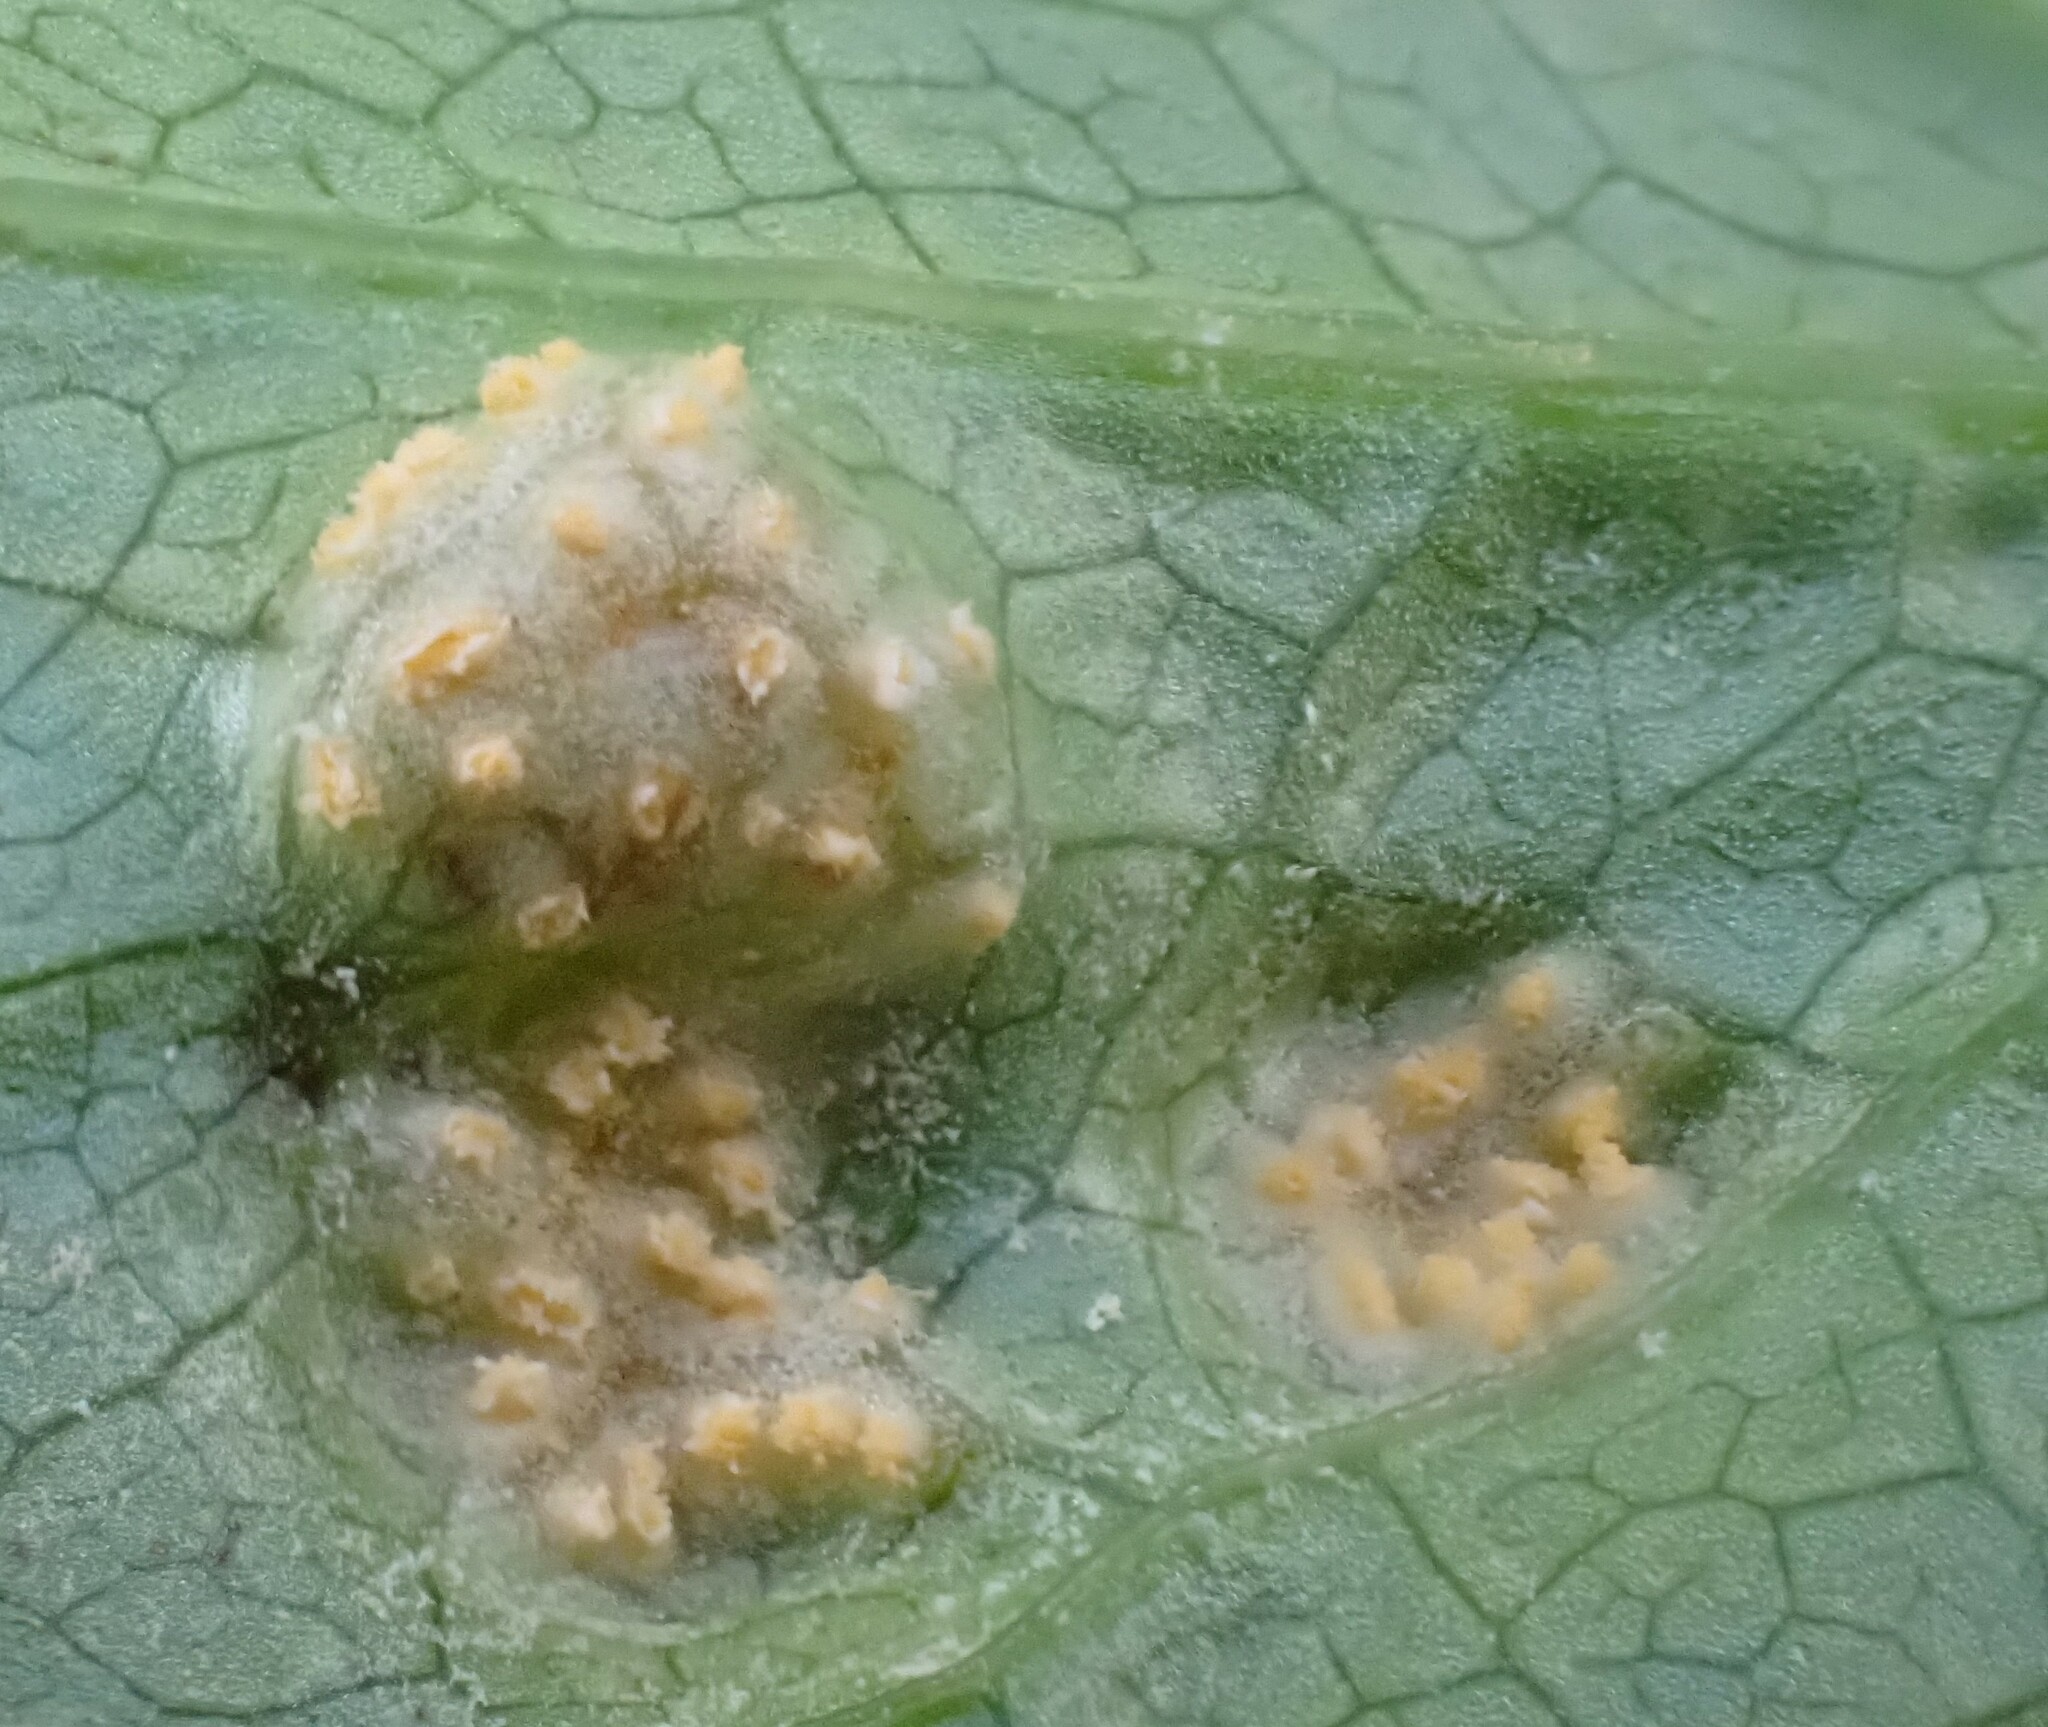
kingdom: Fungi
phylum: Basidiomycota
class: Pucciniomycetes
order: Pucciniales
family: Pucciniaceae
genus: Puccinia
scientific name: Puccinia smyrnii
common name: Alexanders rust
